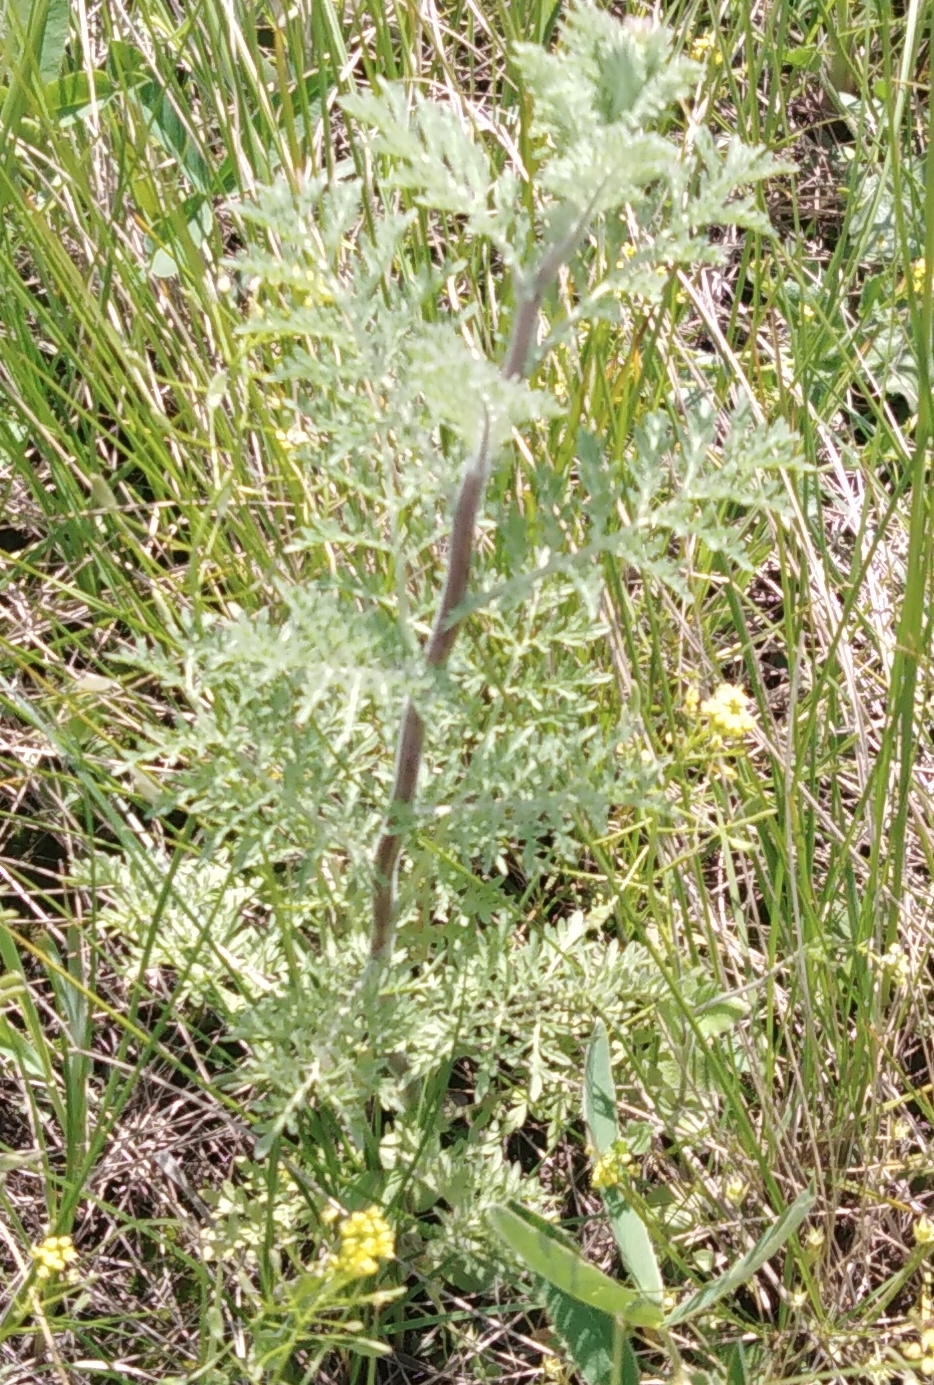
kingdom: Plantae
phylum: Tracheophyta
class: Magnoliopsida
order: Brassicales
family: Brassicaceae
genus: Descurainia
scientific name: Descurainia sophia
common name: Flixweed
